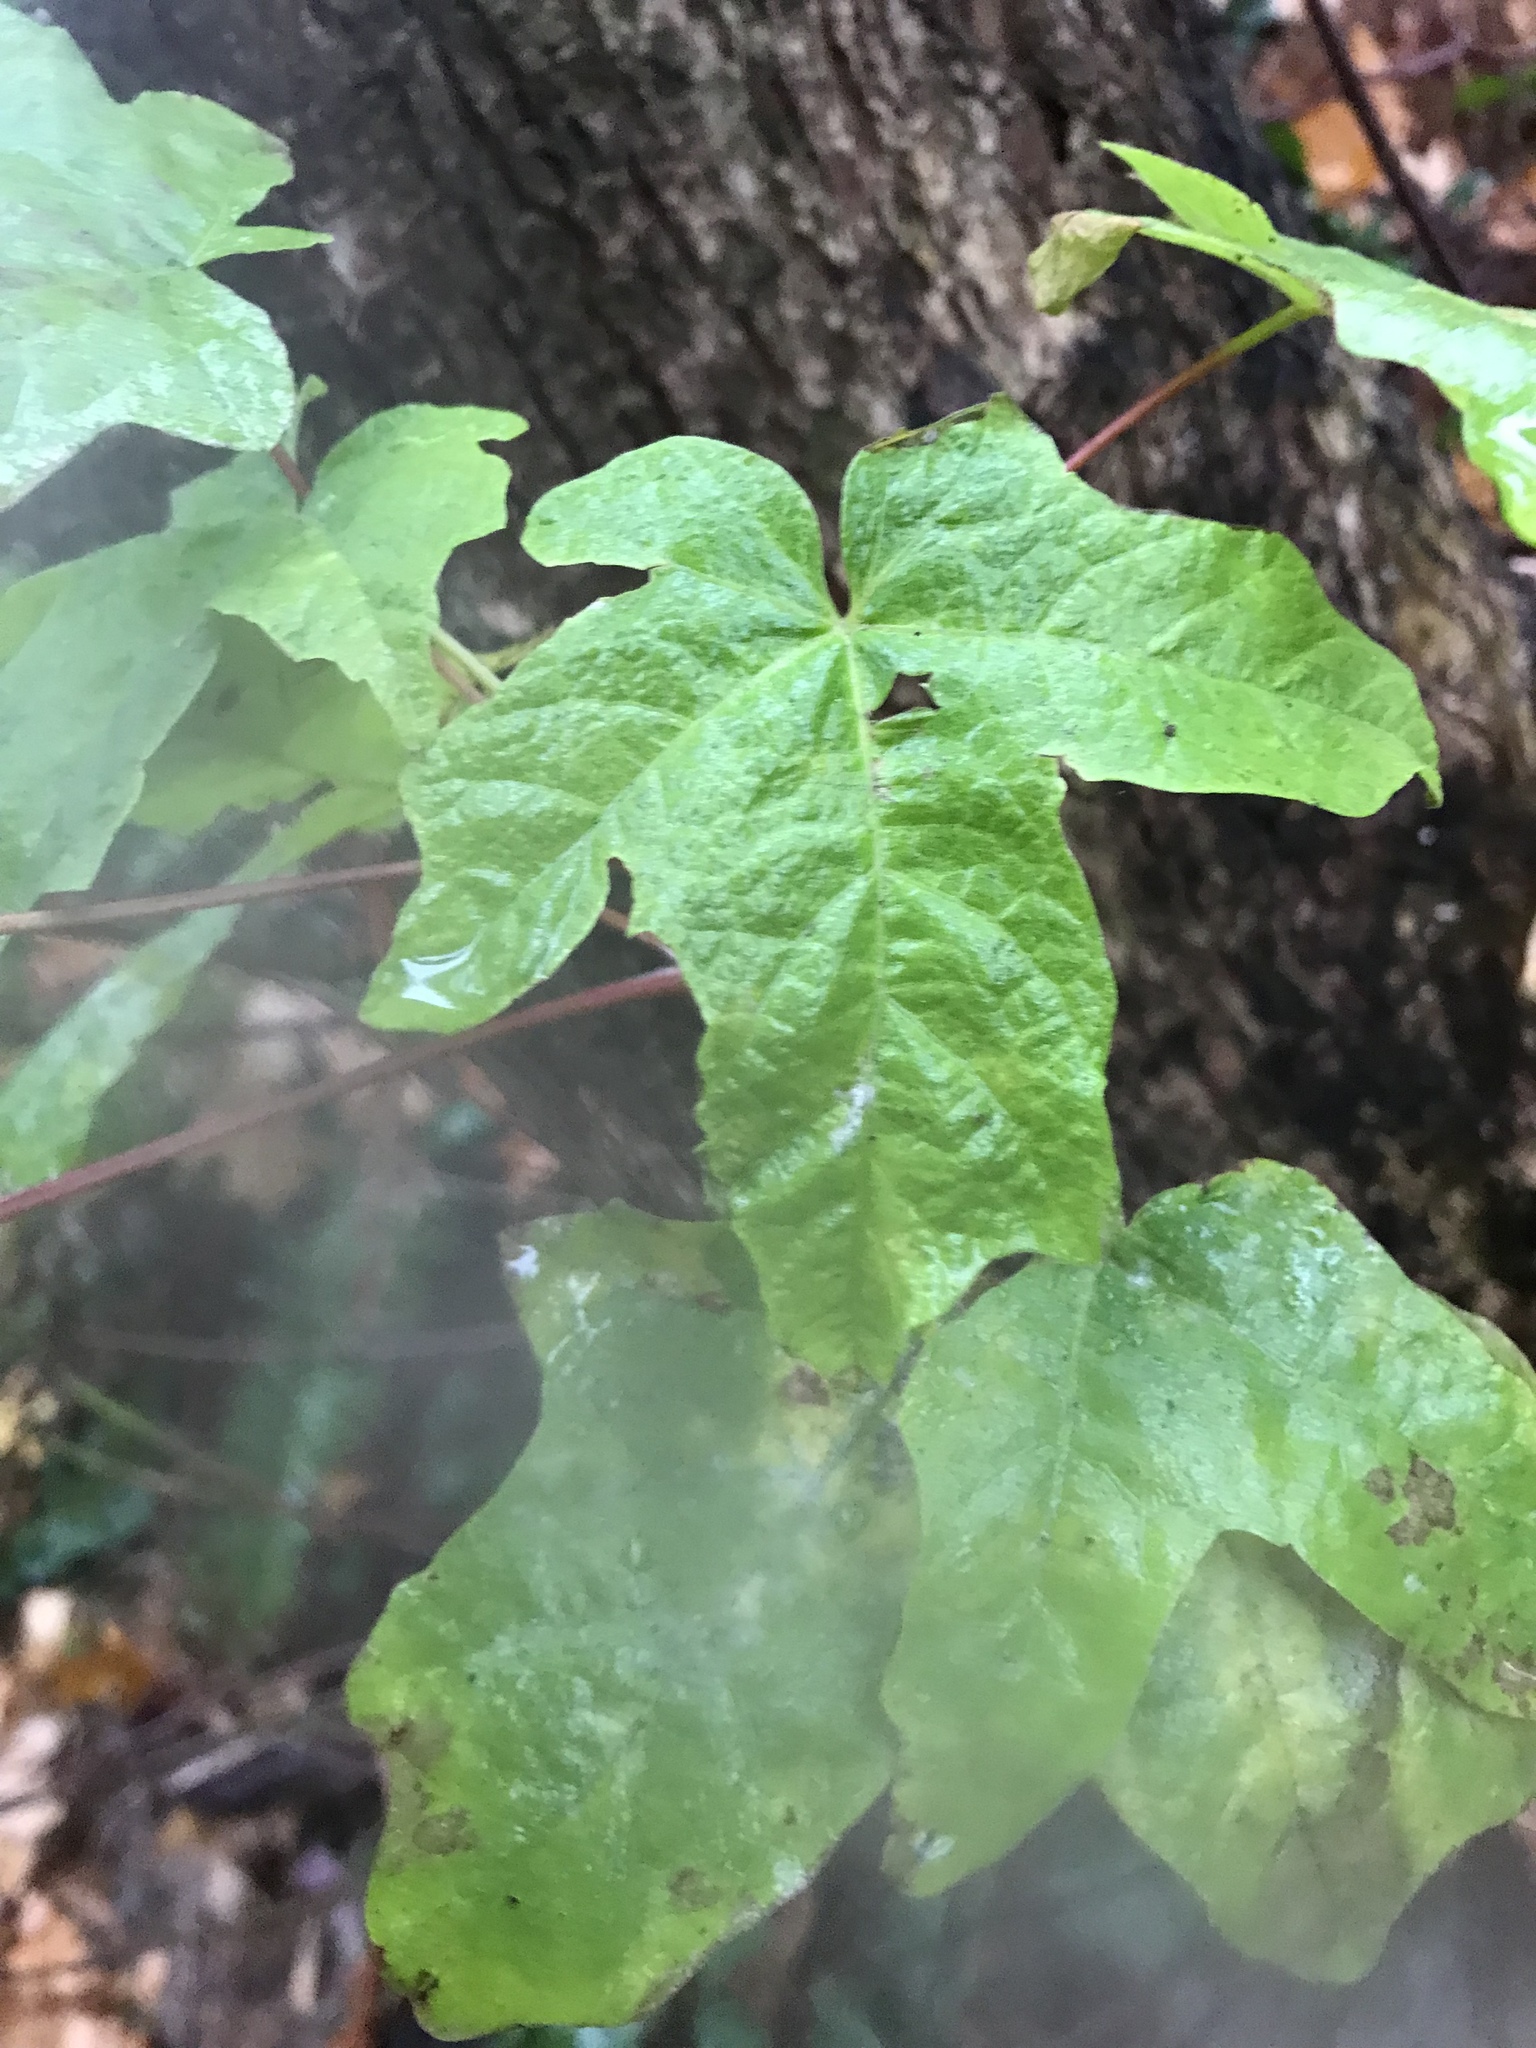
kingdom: Plantae
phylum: Tracheophyta
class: Magnoliopsida
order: Sapindales
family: Sapindaceae
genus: Acer
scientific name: Acer macrophyllum
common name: Oregon maple
